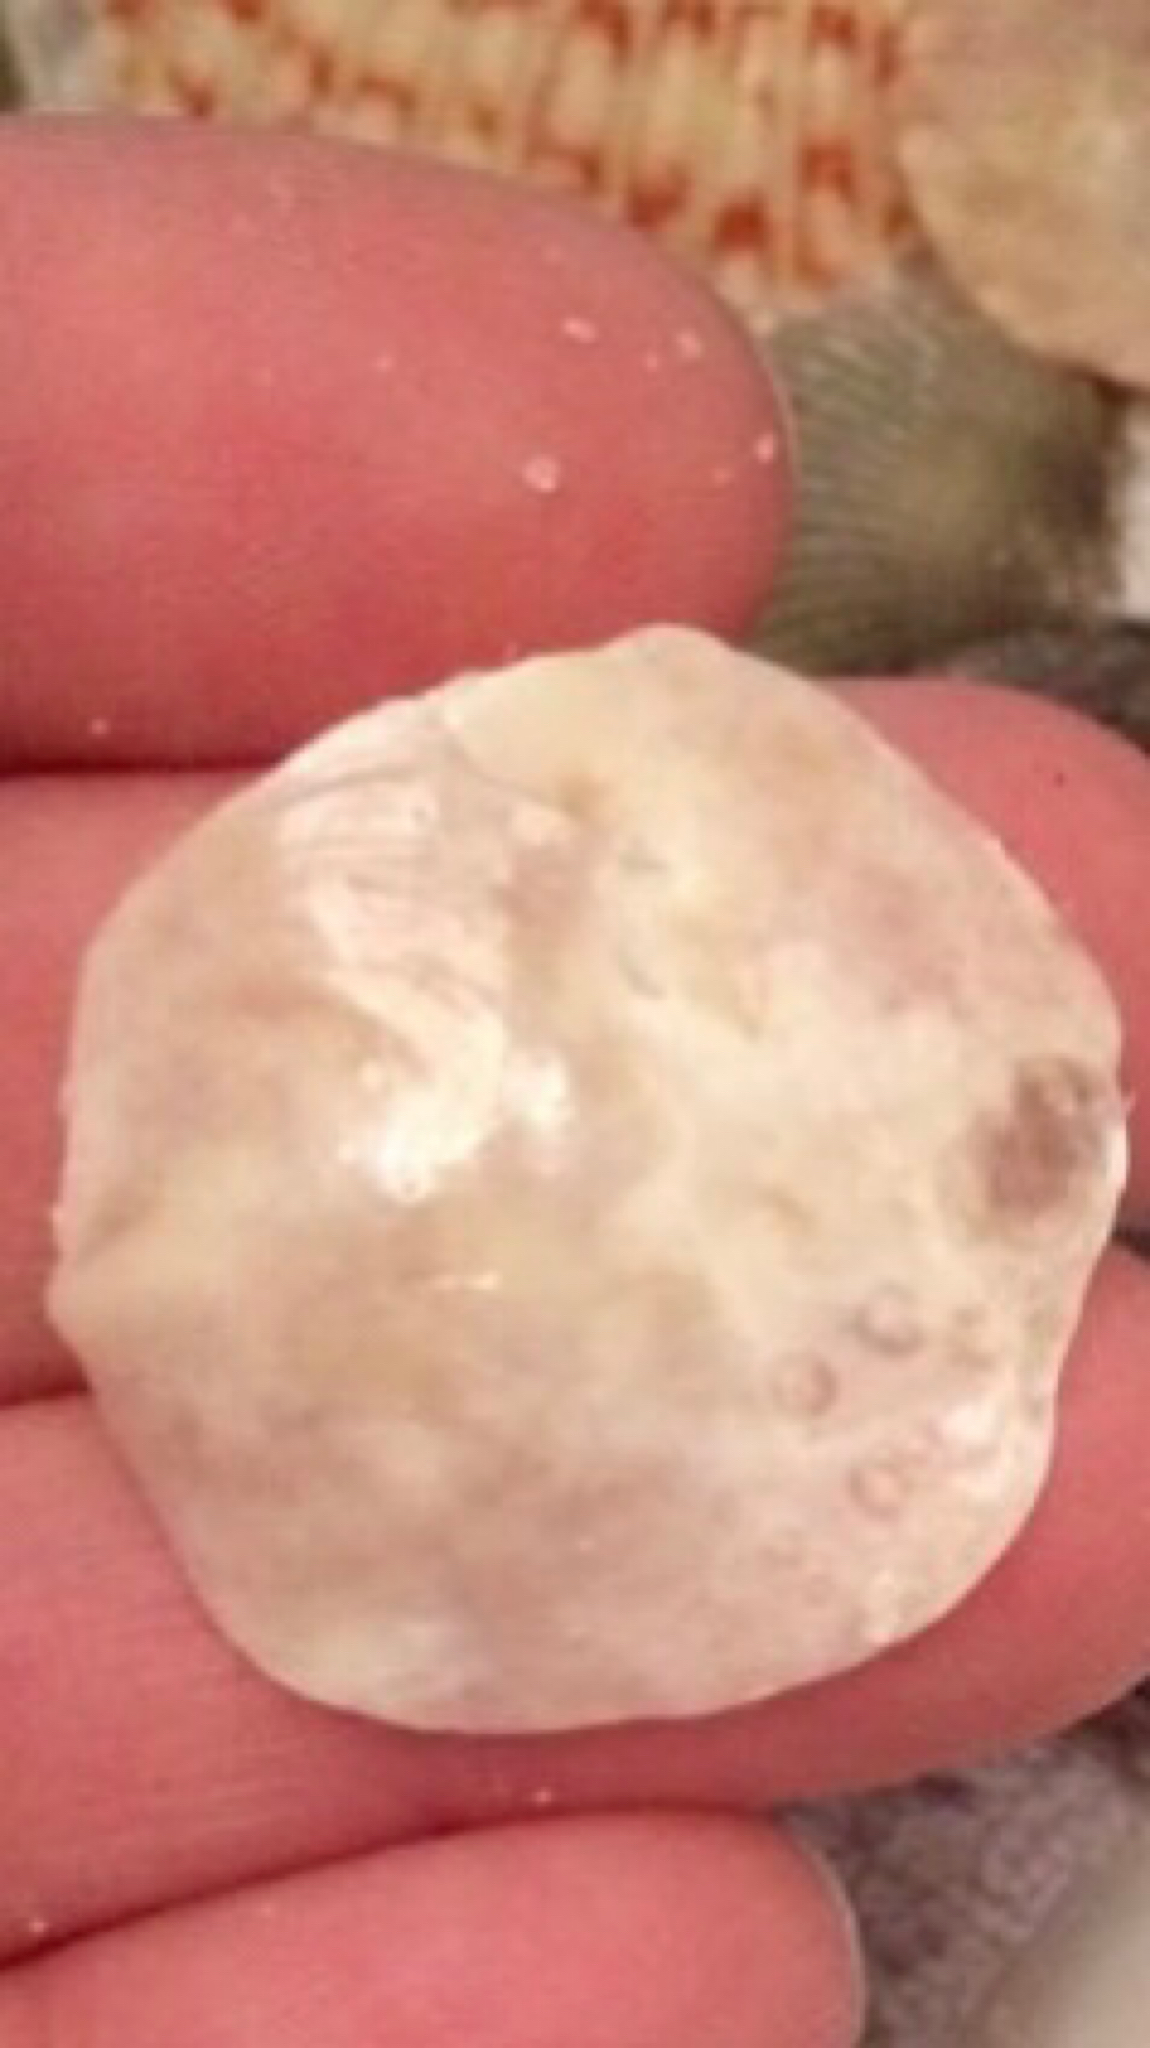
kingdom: Animalia
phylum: Mollusca
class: Bivalvia
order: Pectinida
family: Anomiidae
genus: Anomia
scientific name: Anomia simplex
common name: Common jingle shell
